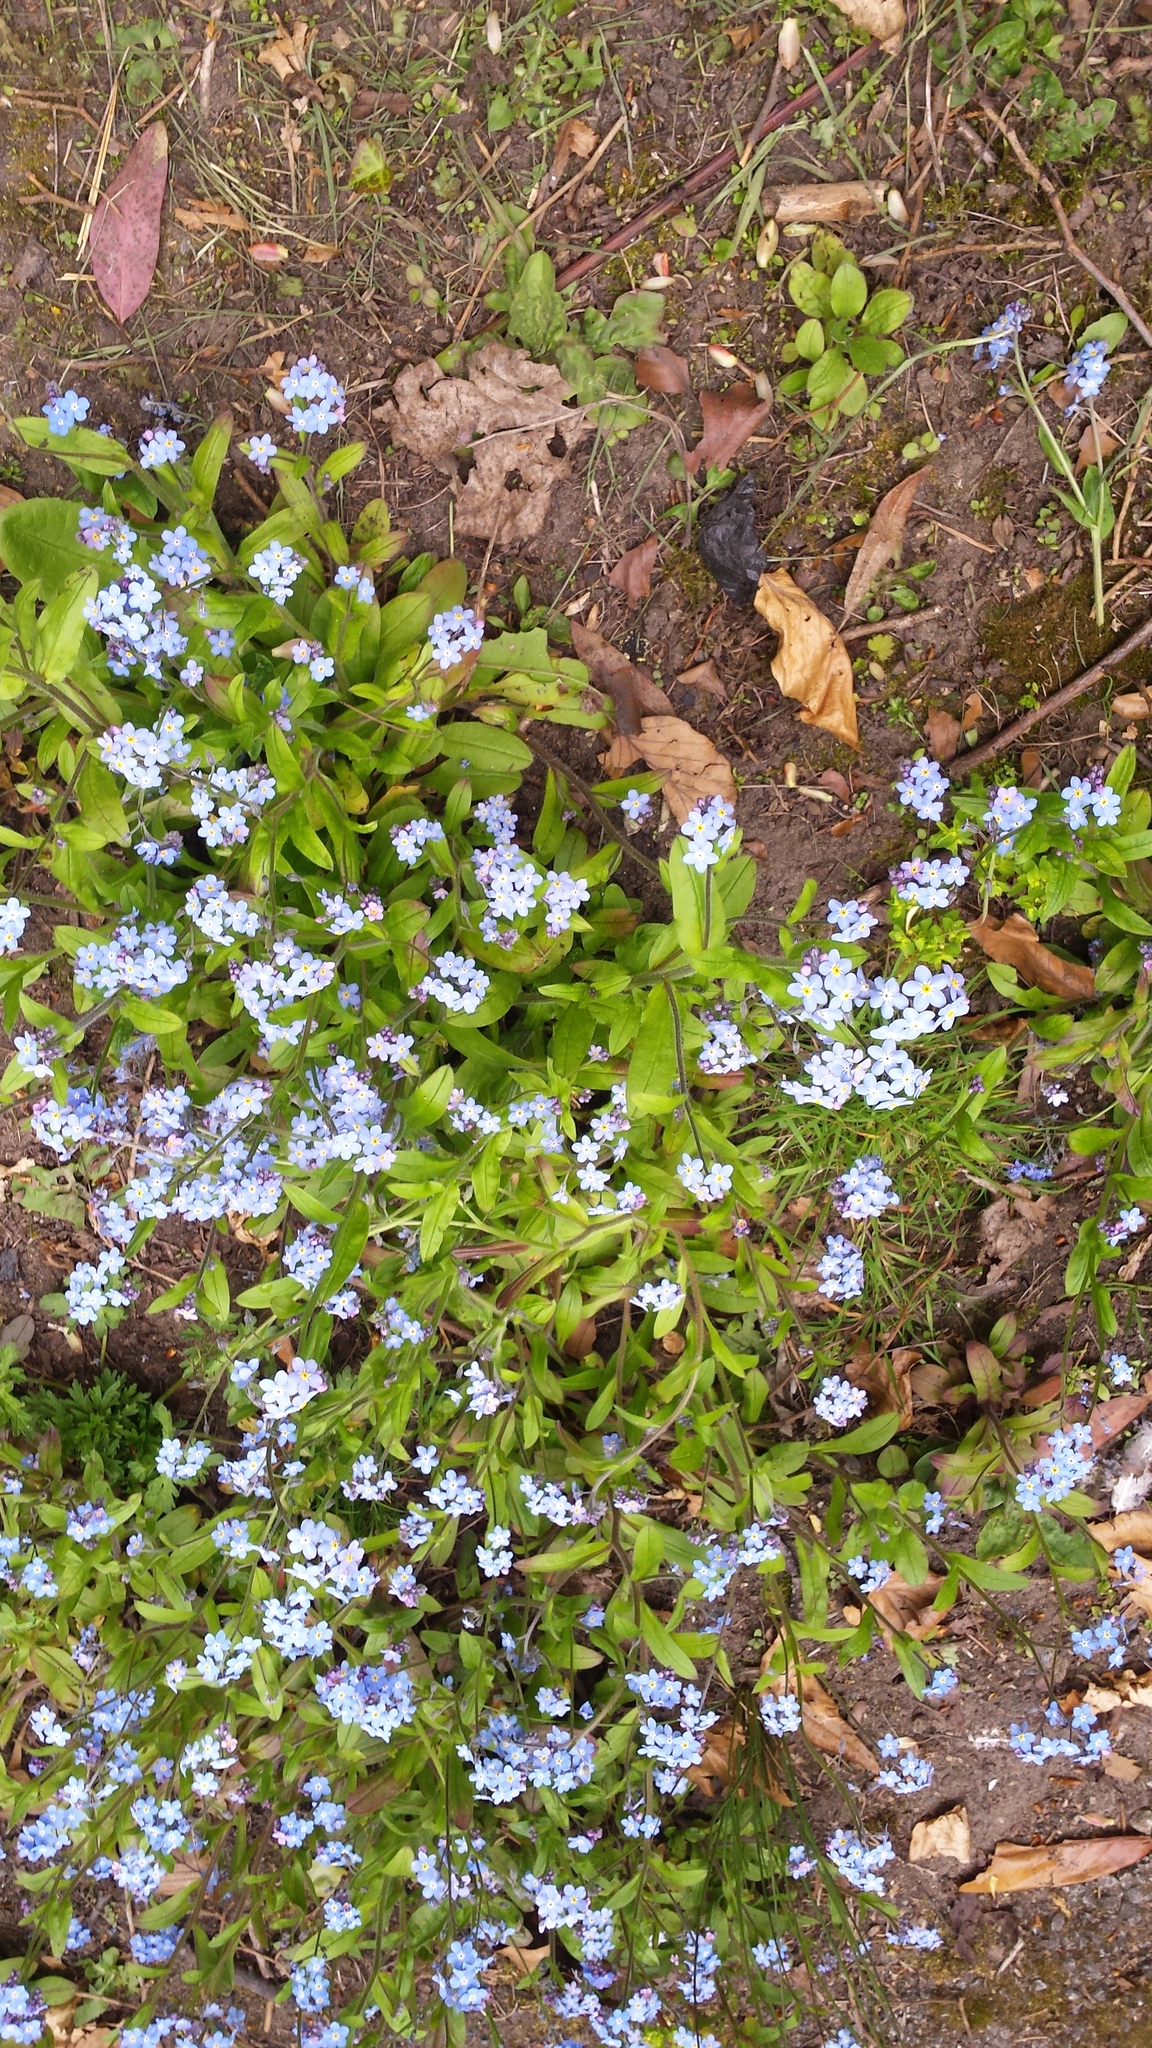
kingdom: Plantae
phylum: Tracheophyta
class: Magnoliopsida
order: Boraginales
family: Boraginaceae
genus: Myosotis
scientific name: Myosotis arvensis
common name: Field forget-me-not
